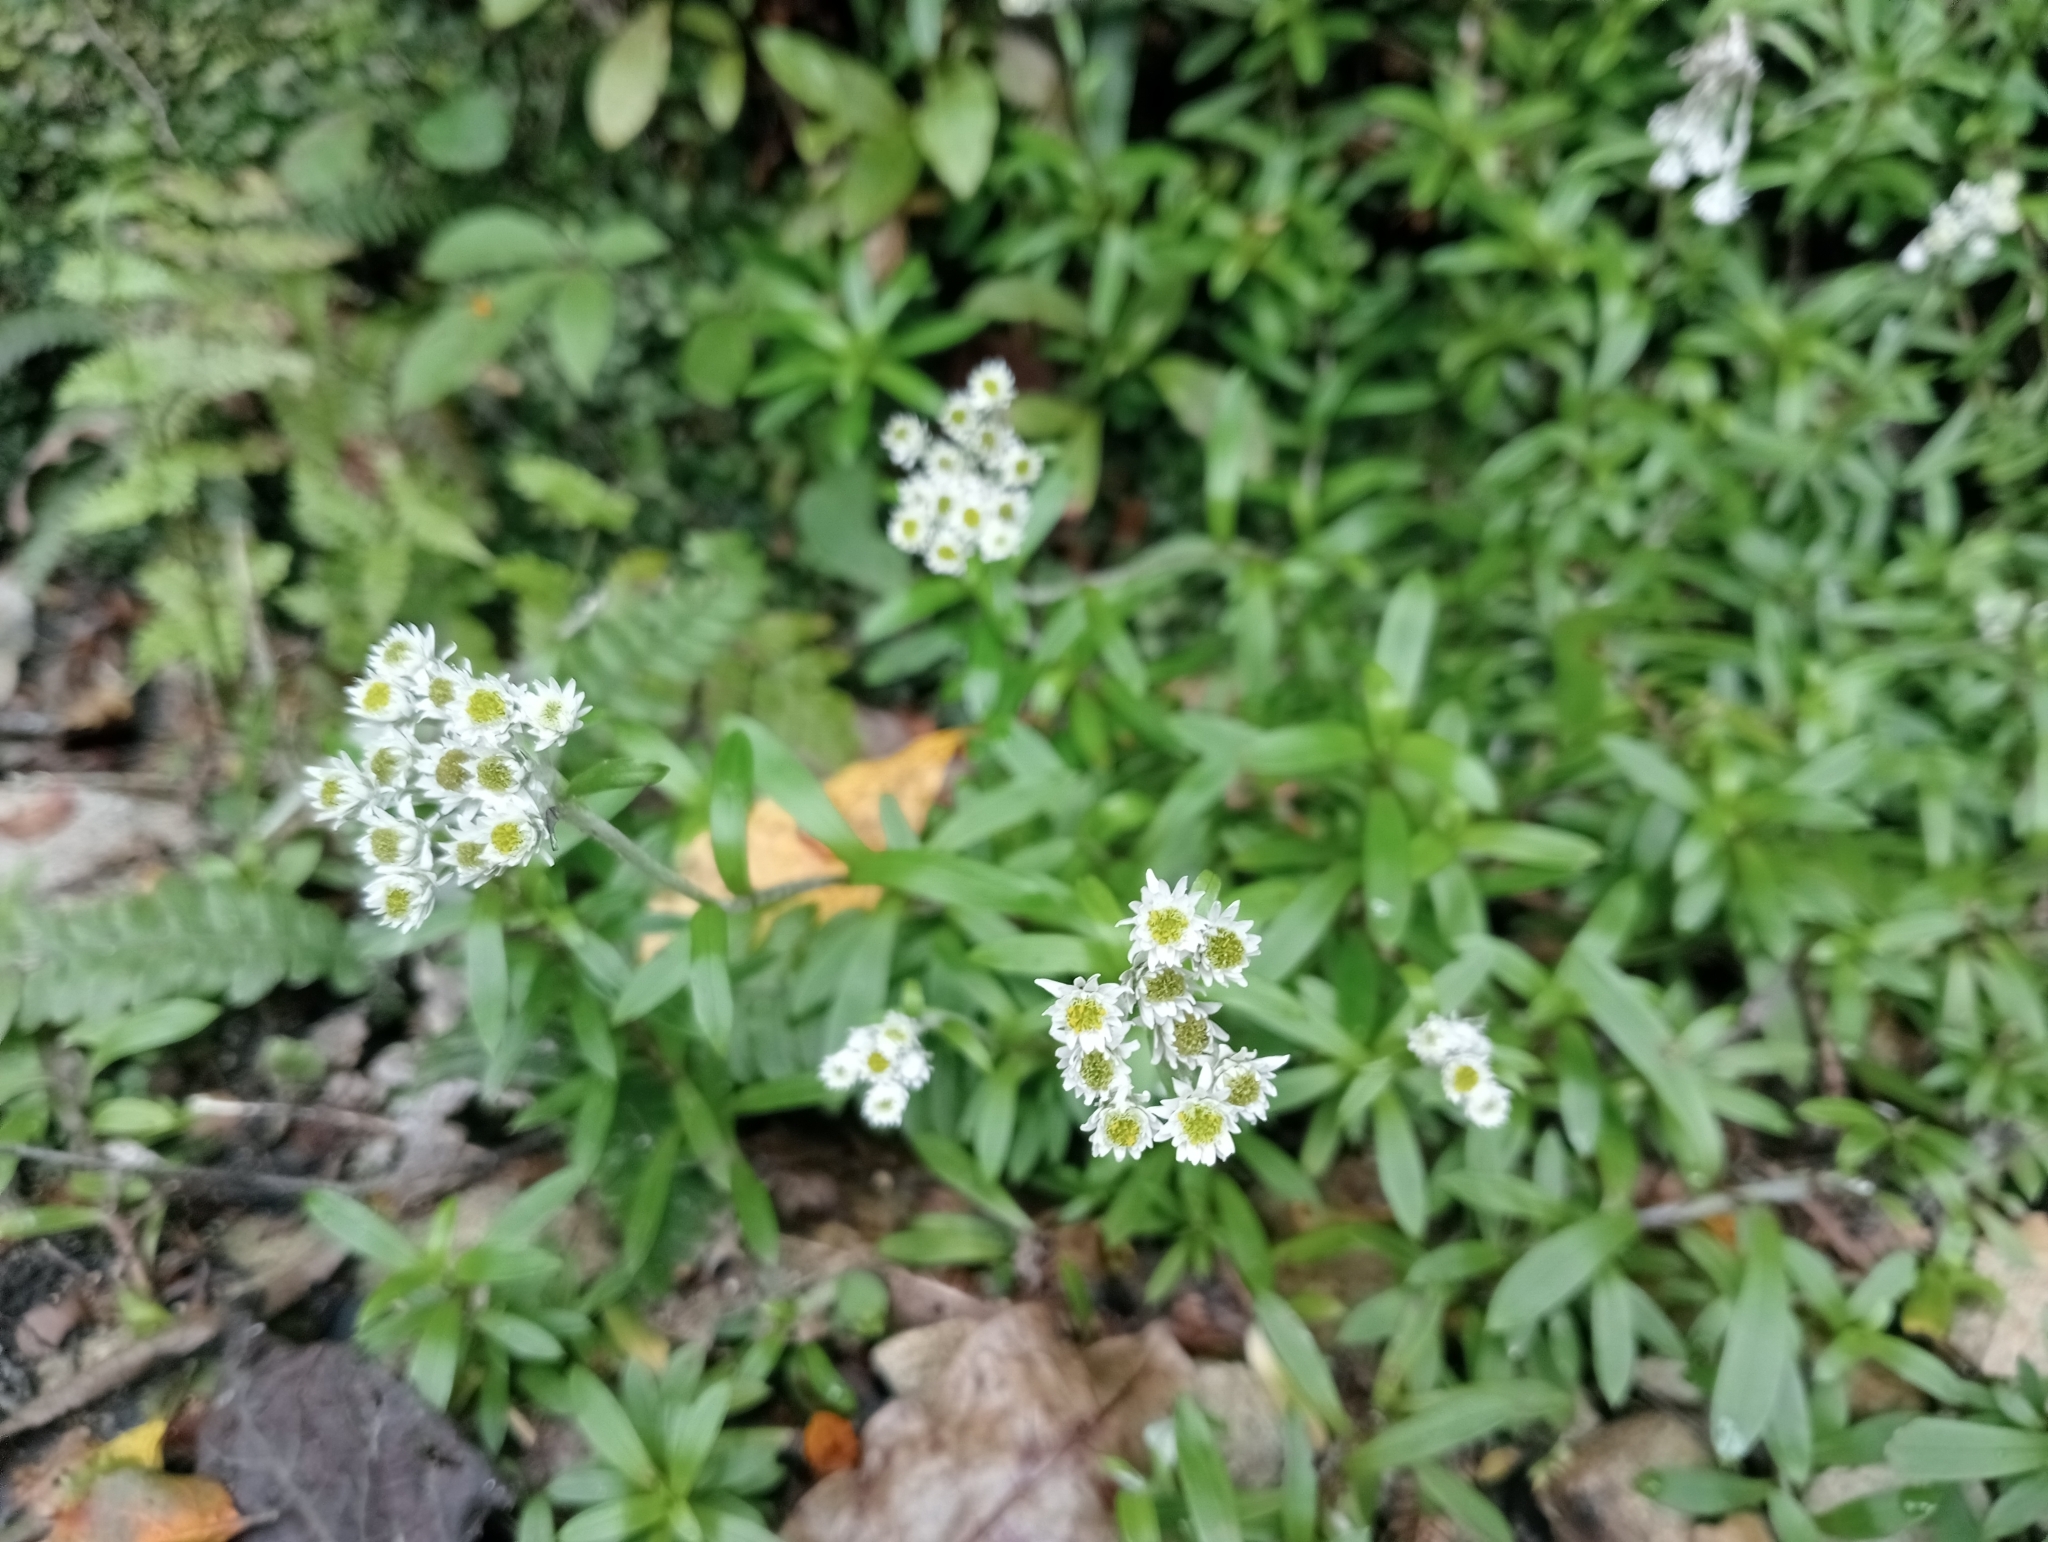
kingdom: Plantae
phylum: Tracheophyta
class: Magnoliopsida
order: Asterales
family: Asteraceae
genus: Anaphalioides
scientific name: Anaphalioides trinervis
